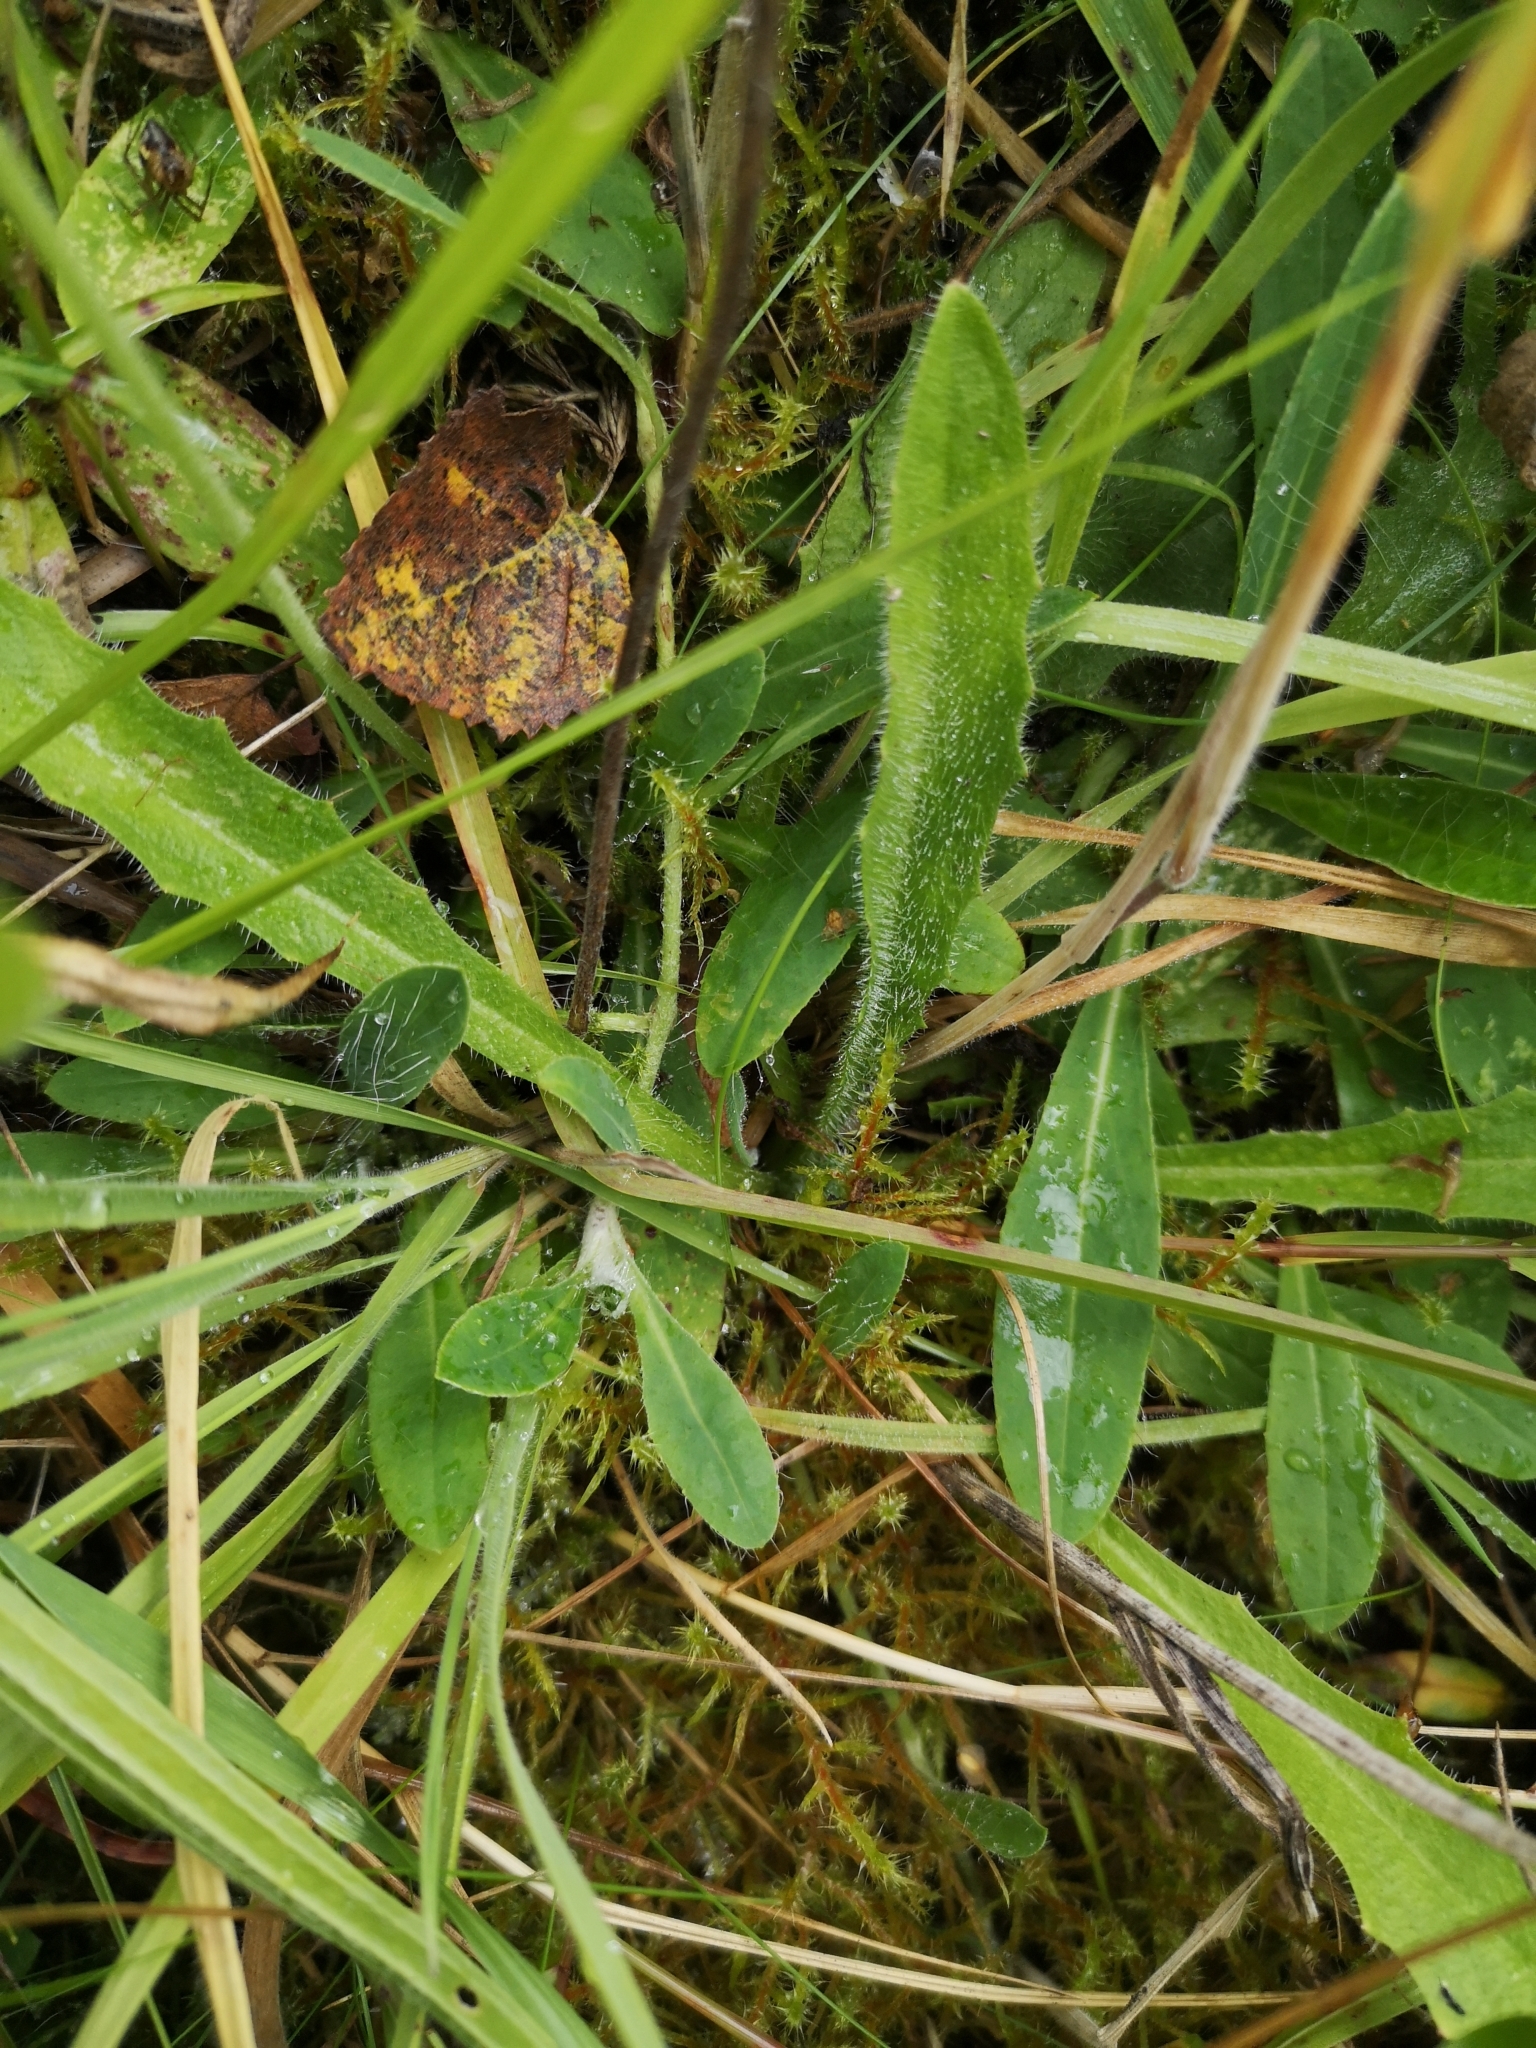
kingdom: Plantae
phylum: Tracheophyta
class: Magnoliopsida
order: Asterales
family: Asteraceae
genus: Pilosella
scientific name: Pilosella officinarum
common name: Mouse-ear hawkweed
